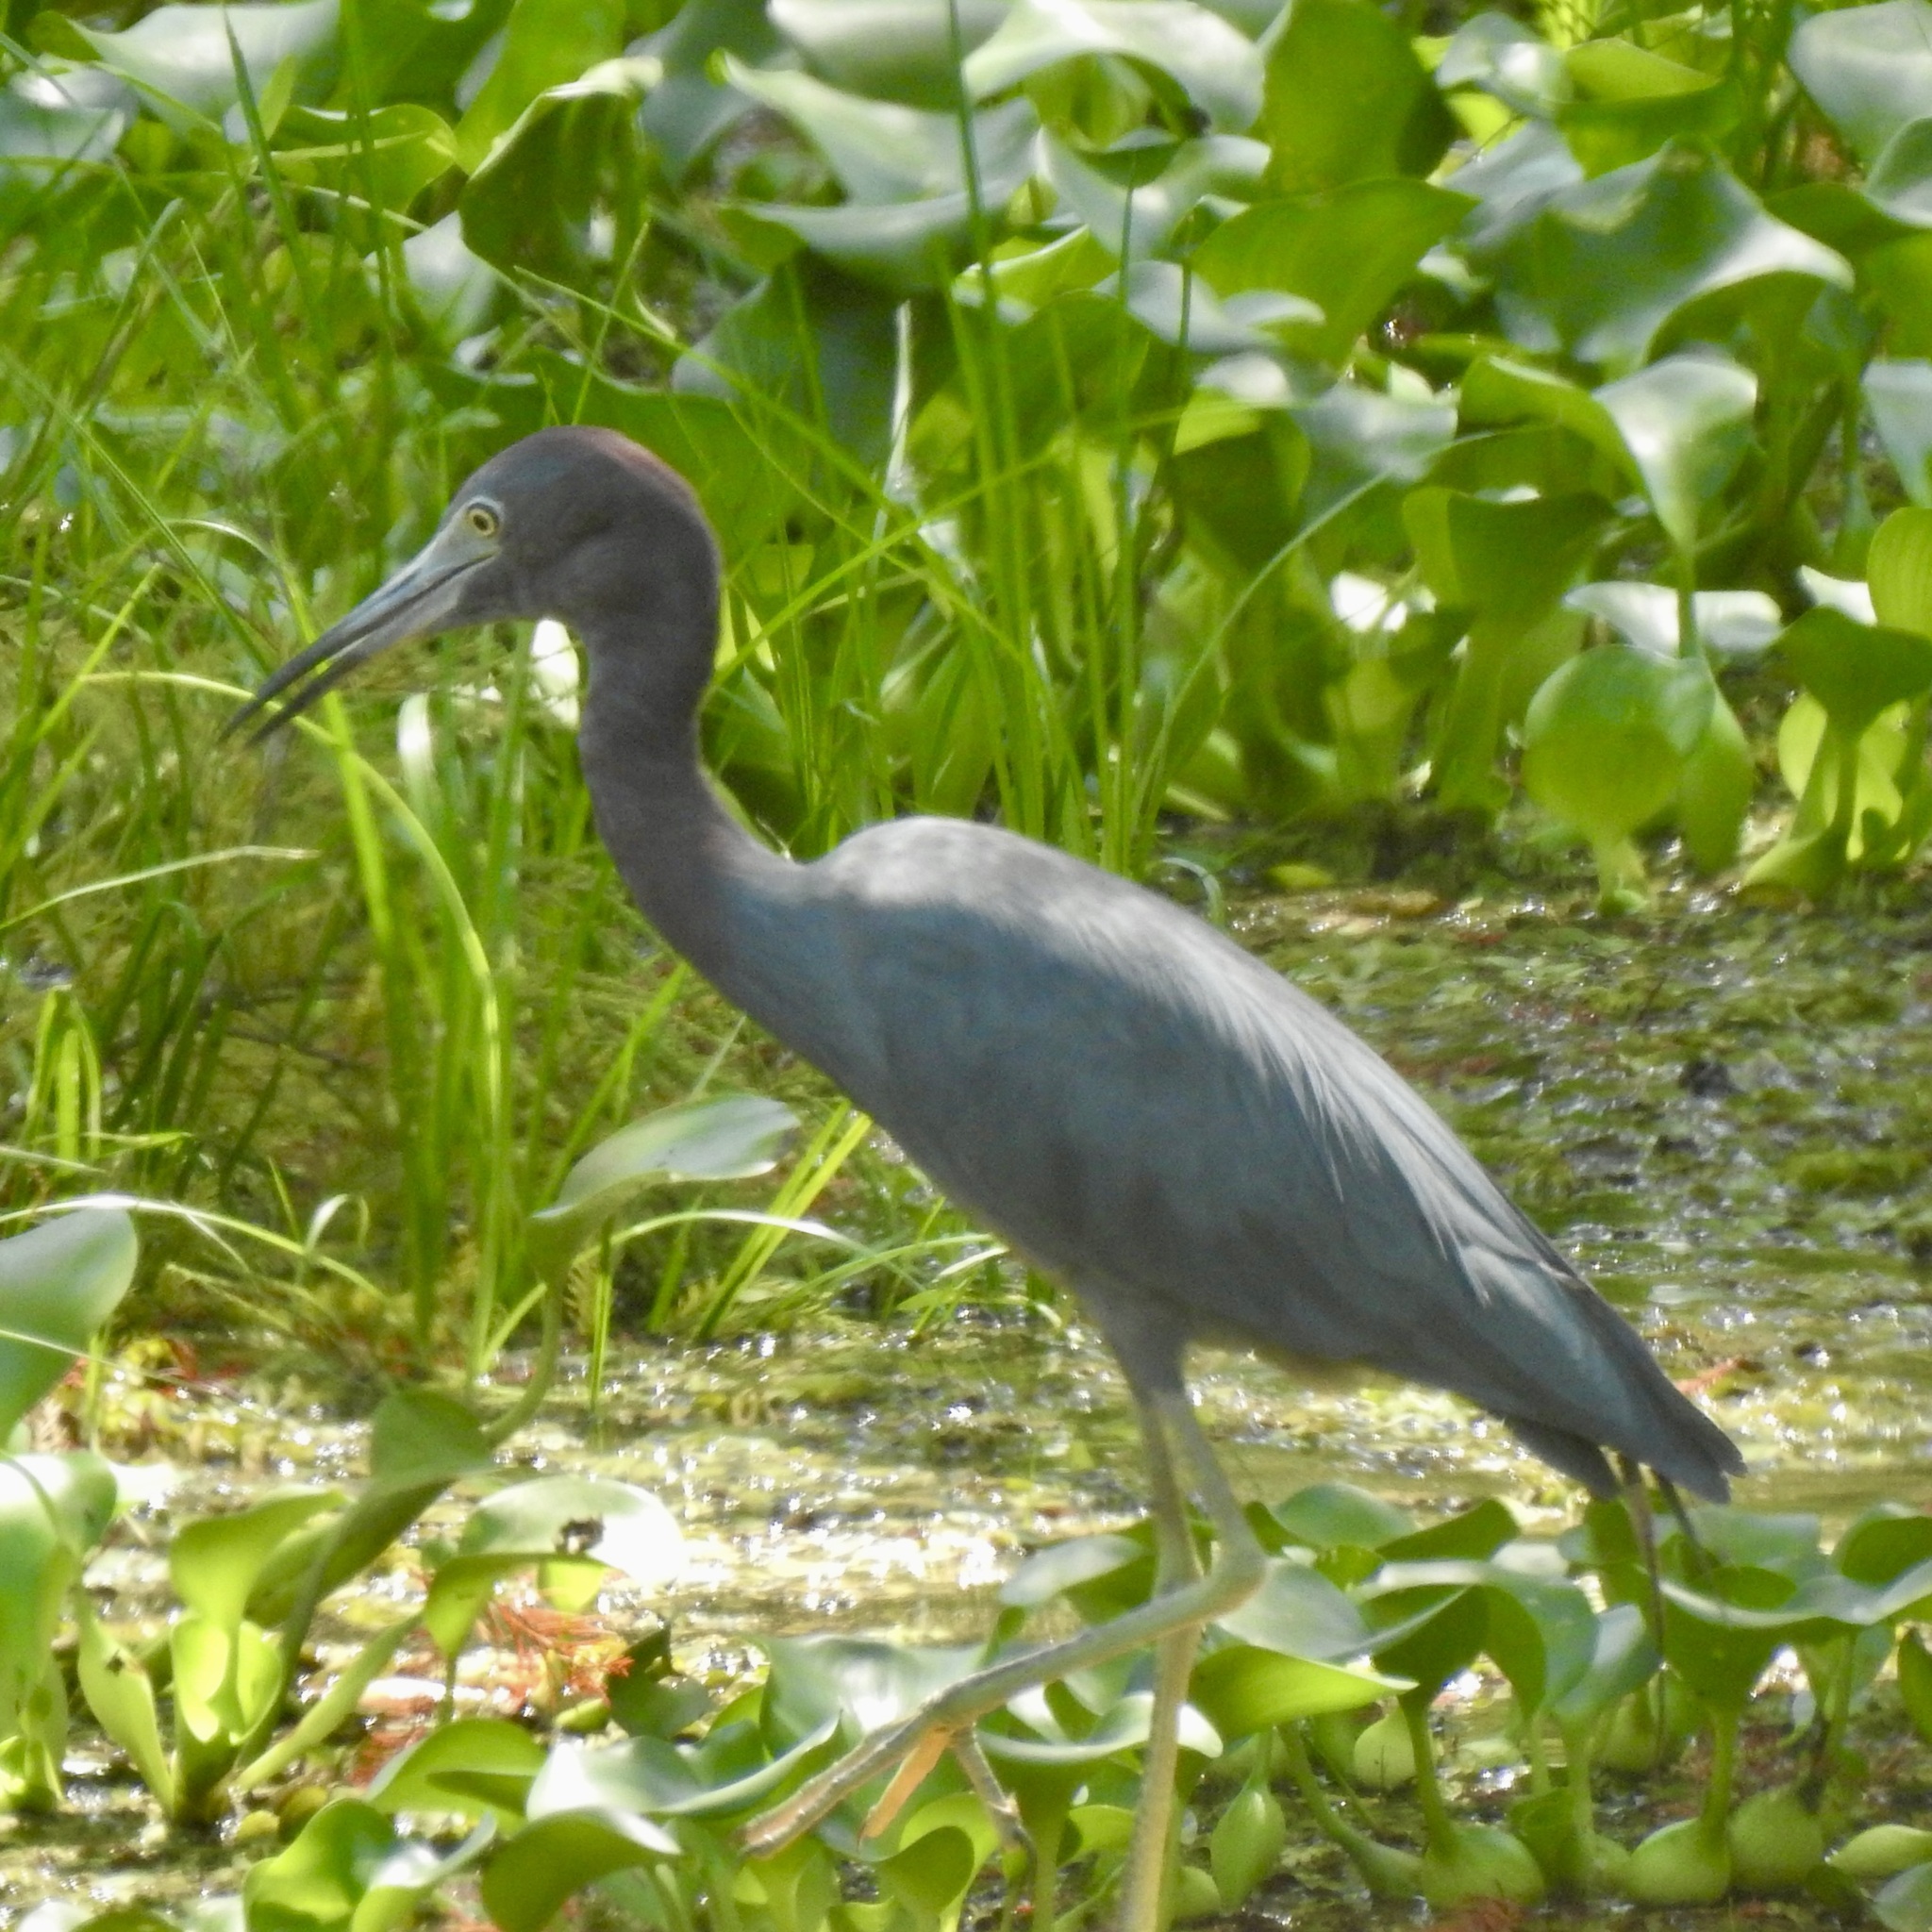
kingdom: Animalia
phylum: Chordata
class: Aves
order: Pelecaniformes
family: Ardeidae
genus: Egretta
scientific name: Egretta caerulea
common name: Little blue heron
